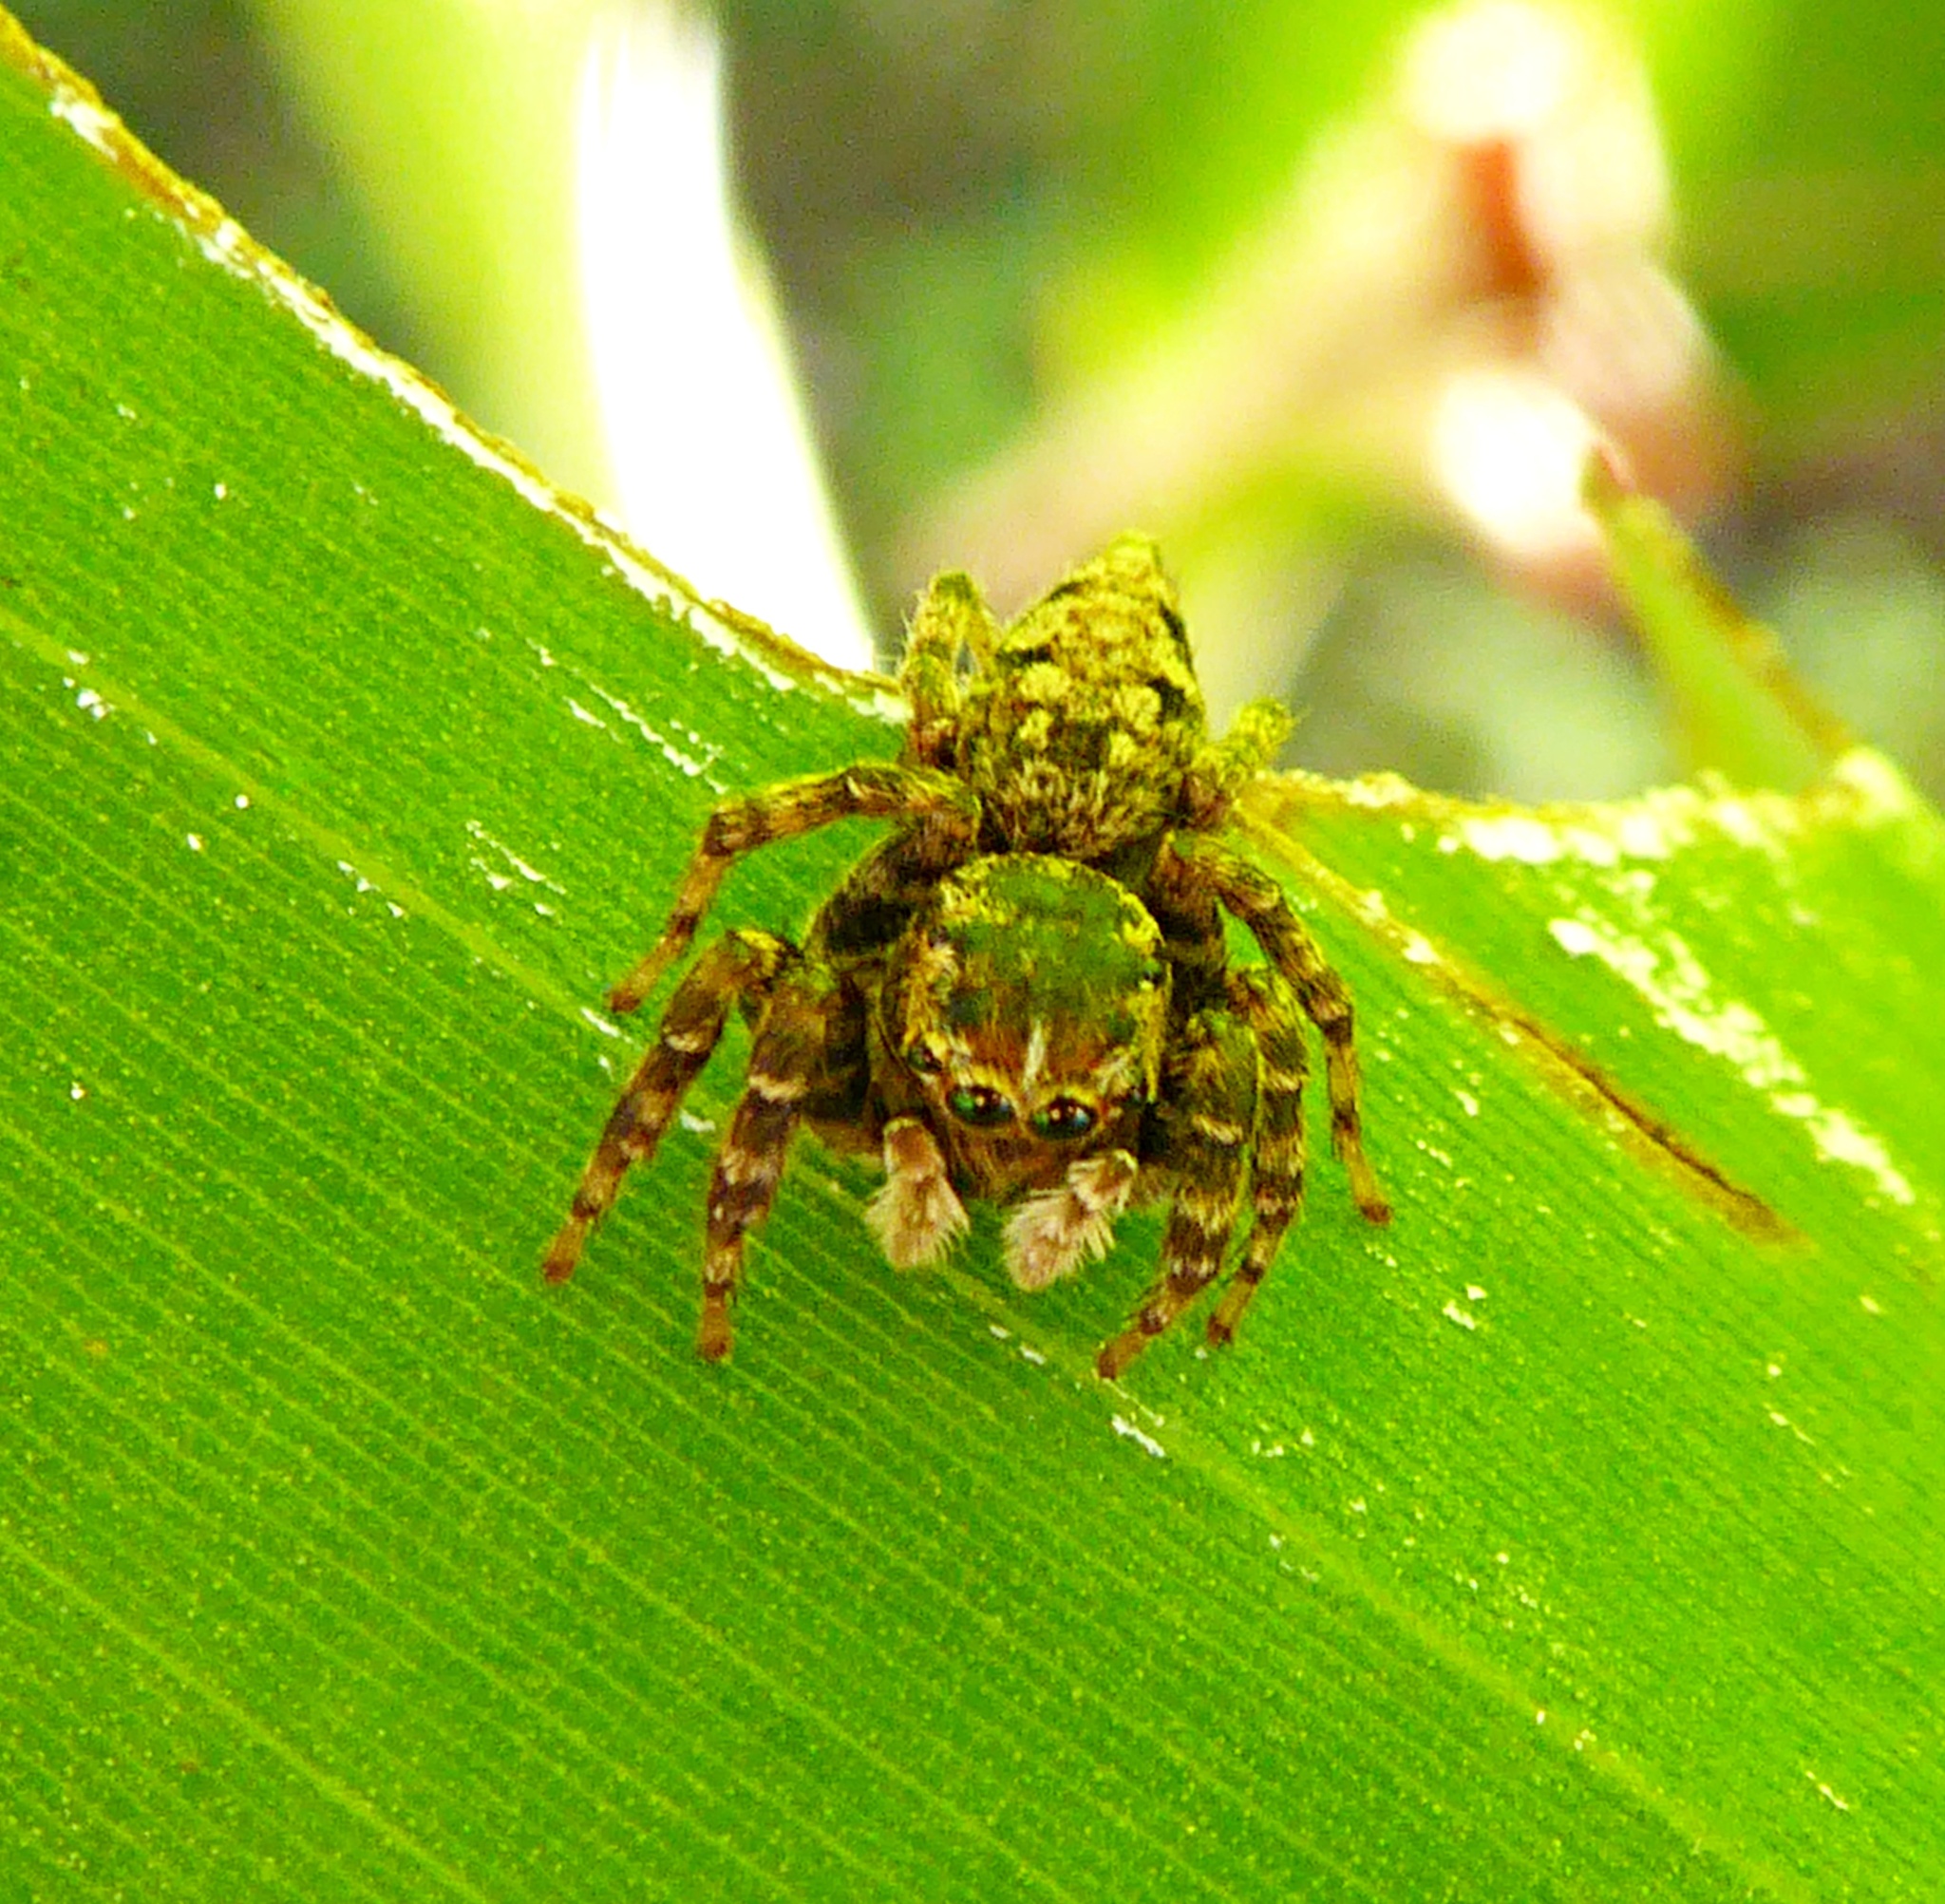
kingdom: Animalia
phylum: Arthropoda
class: Arachnida
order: Araneae
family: Salticidae
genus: Sumampattus
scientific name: Sumampattus quinqueradiatus
